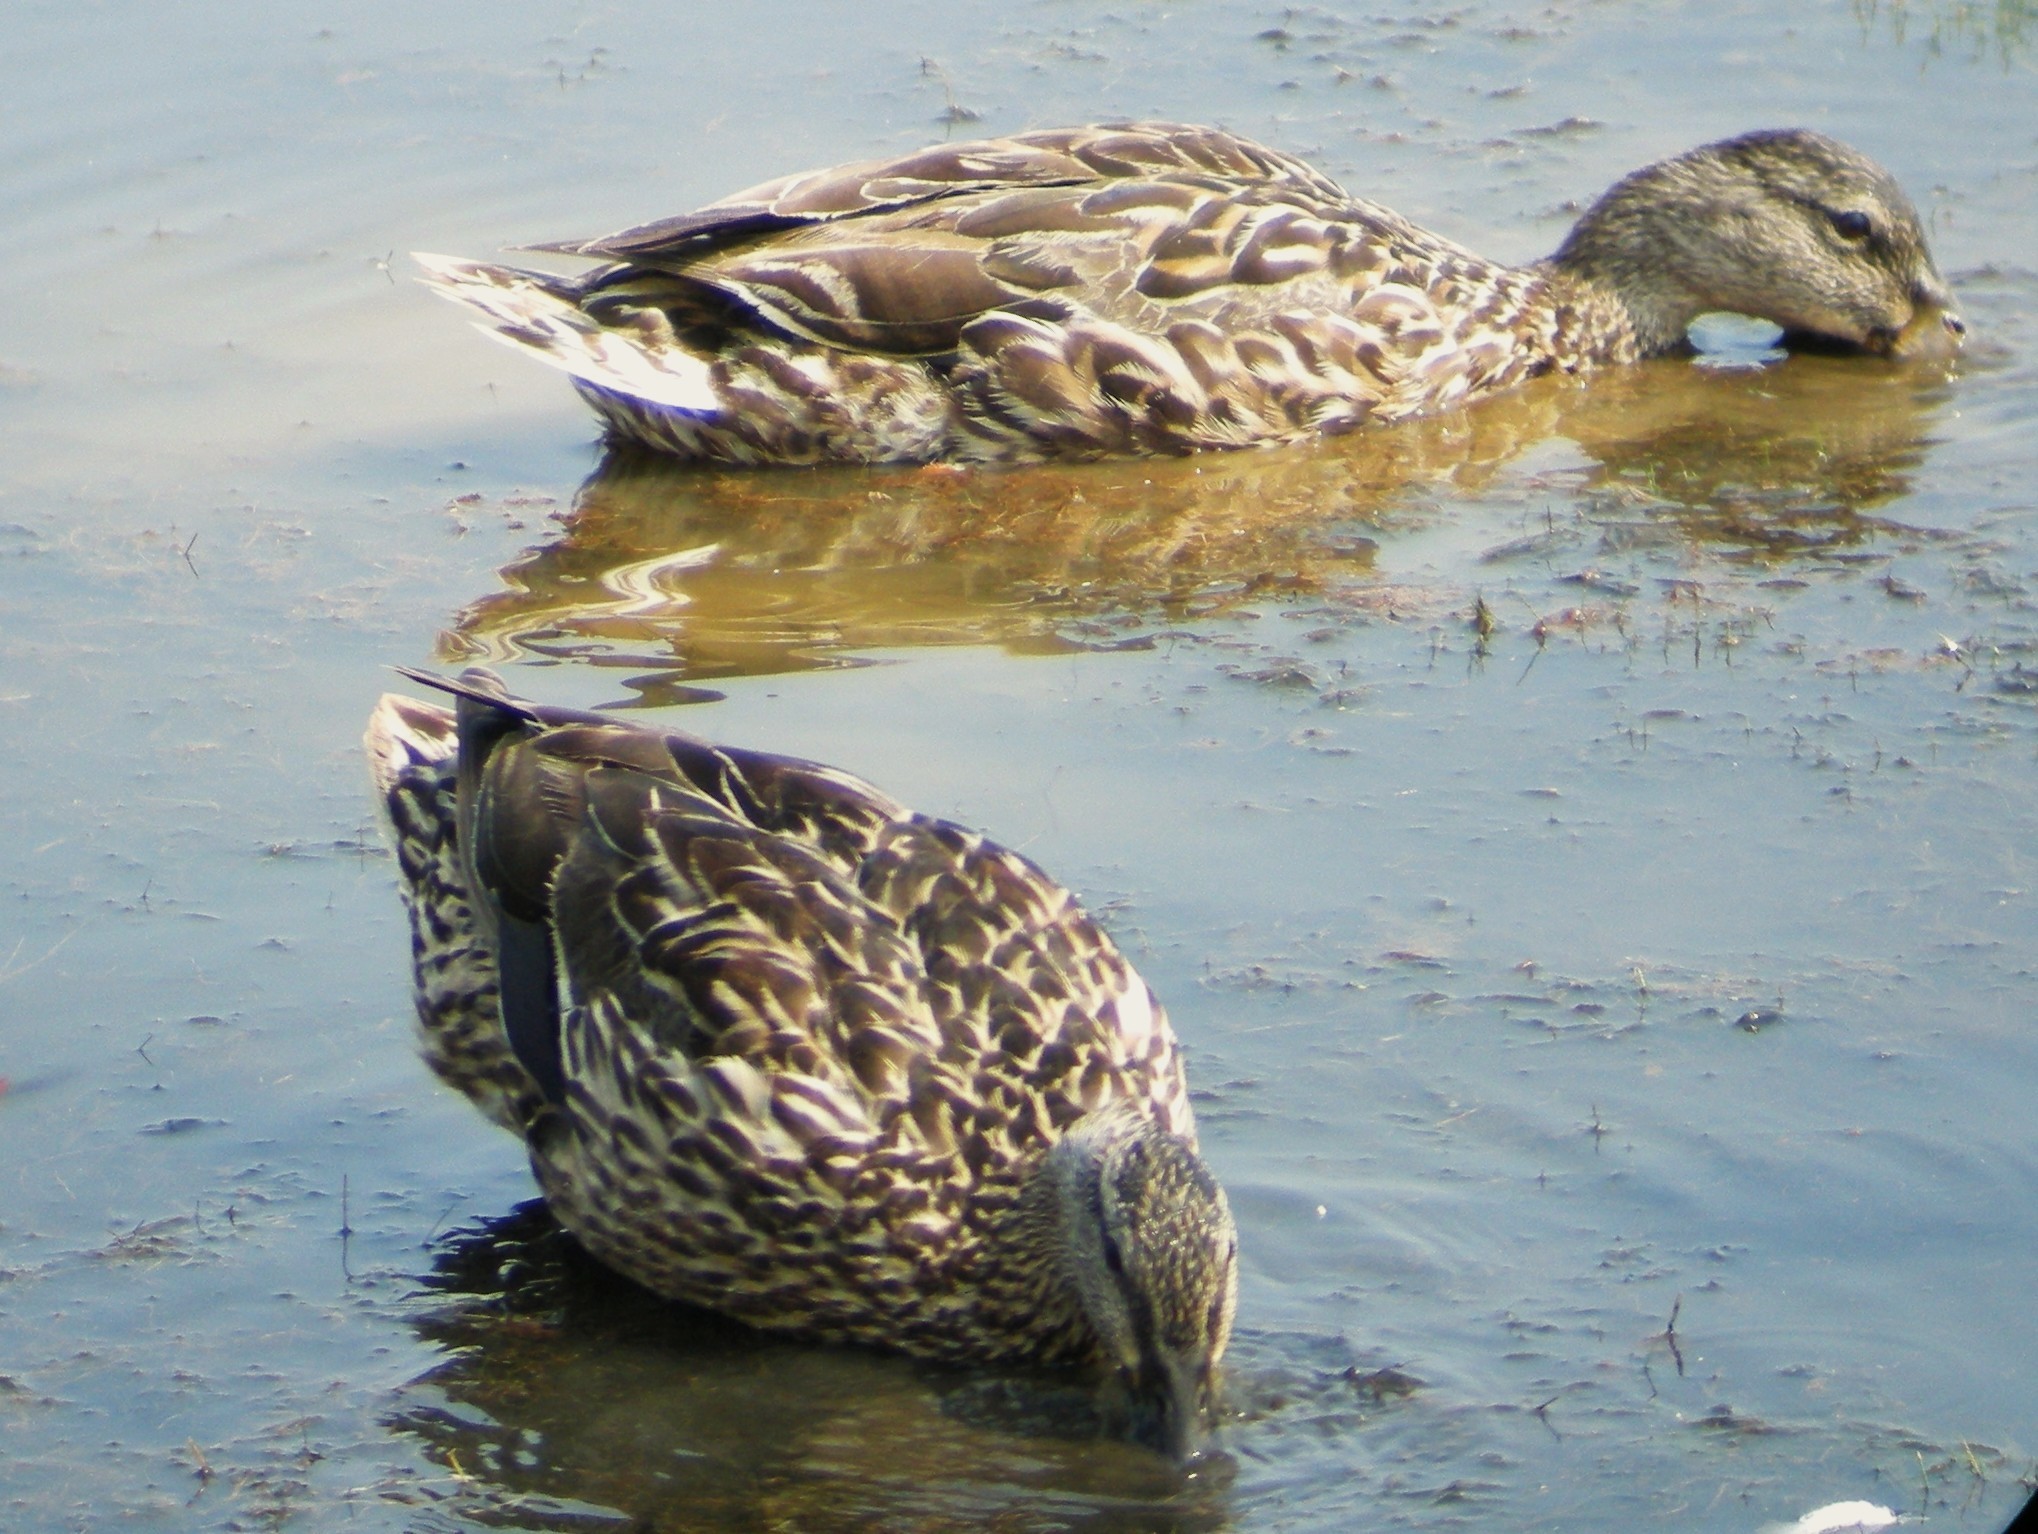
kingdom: Animalia
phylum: Chordata
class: Aves
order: Anseriformes
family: Anatidae
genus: Anas
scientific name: Anas platyrhynchos
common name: Mallard
